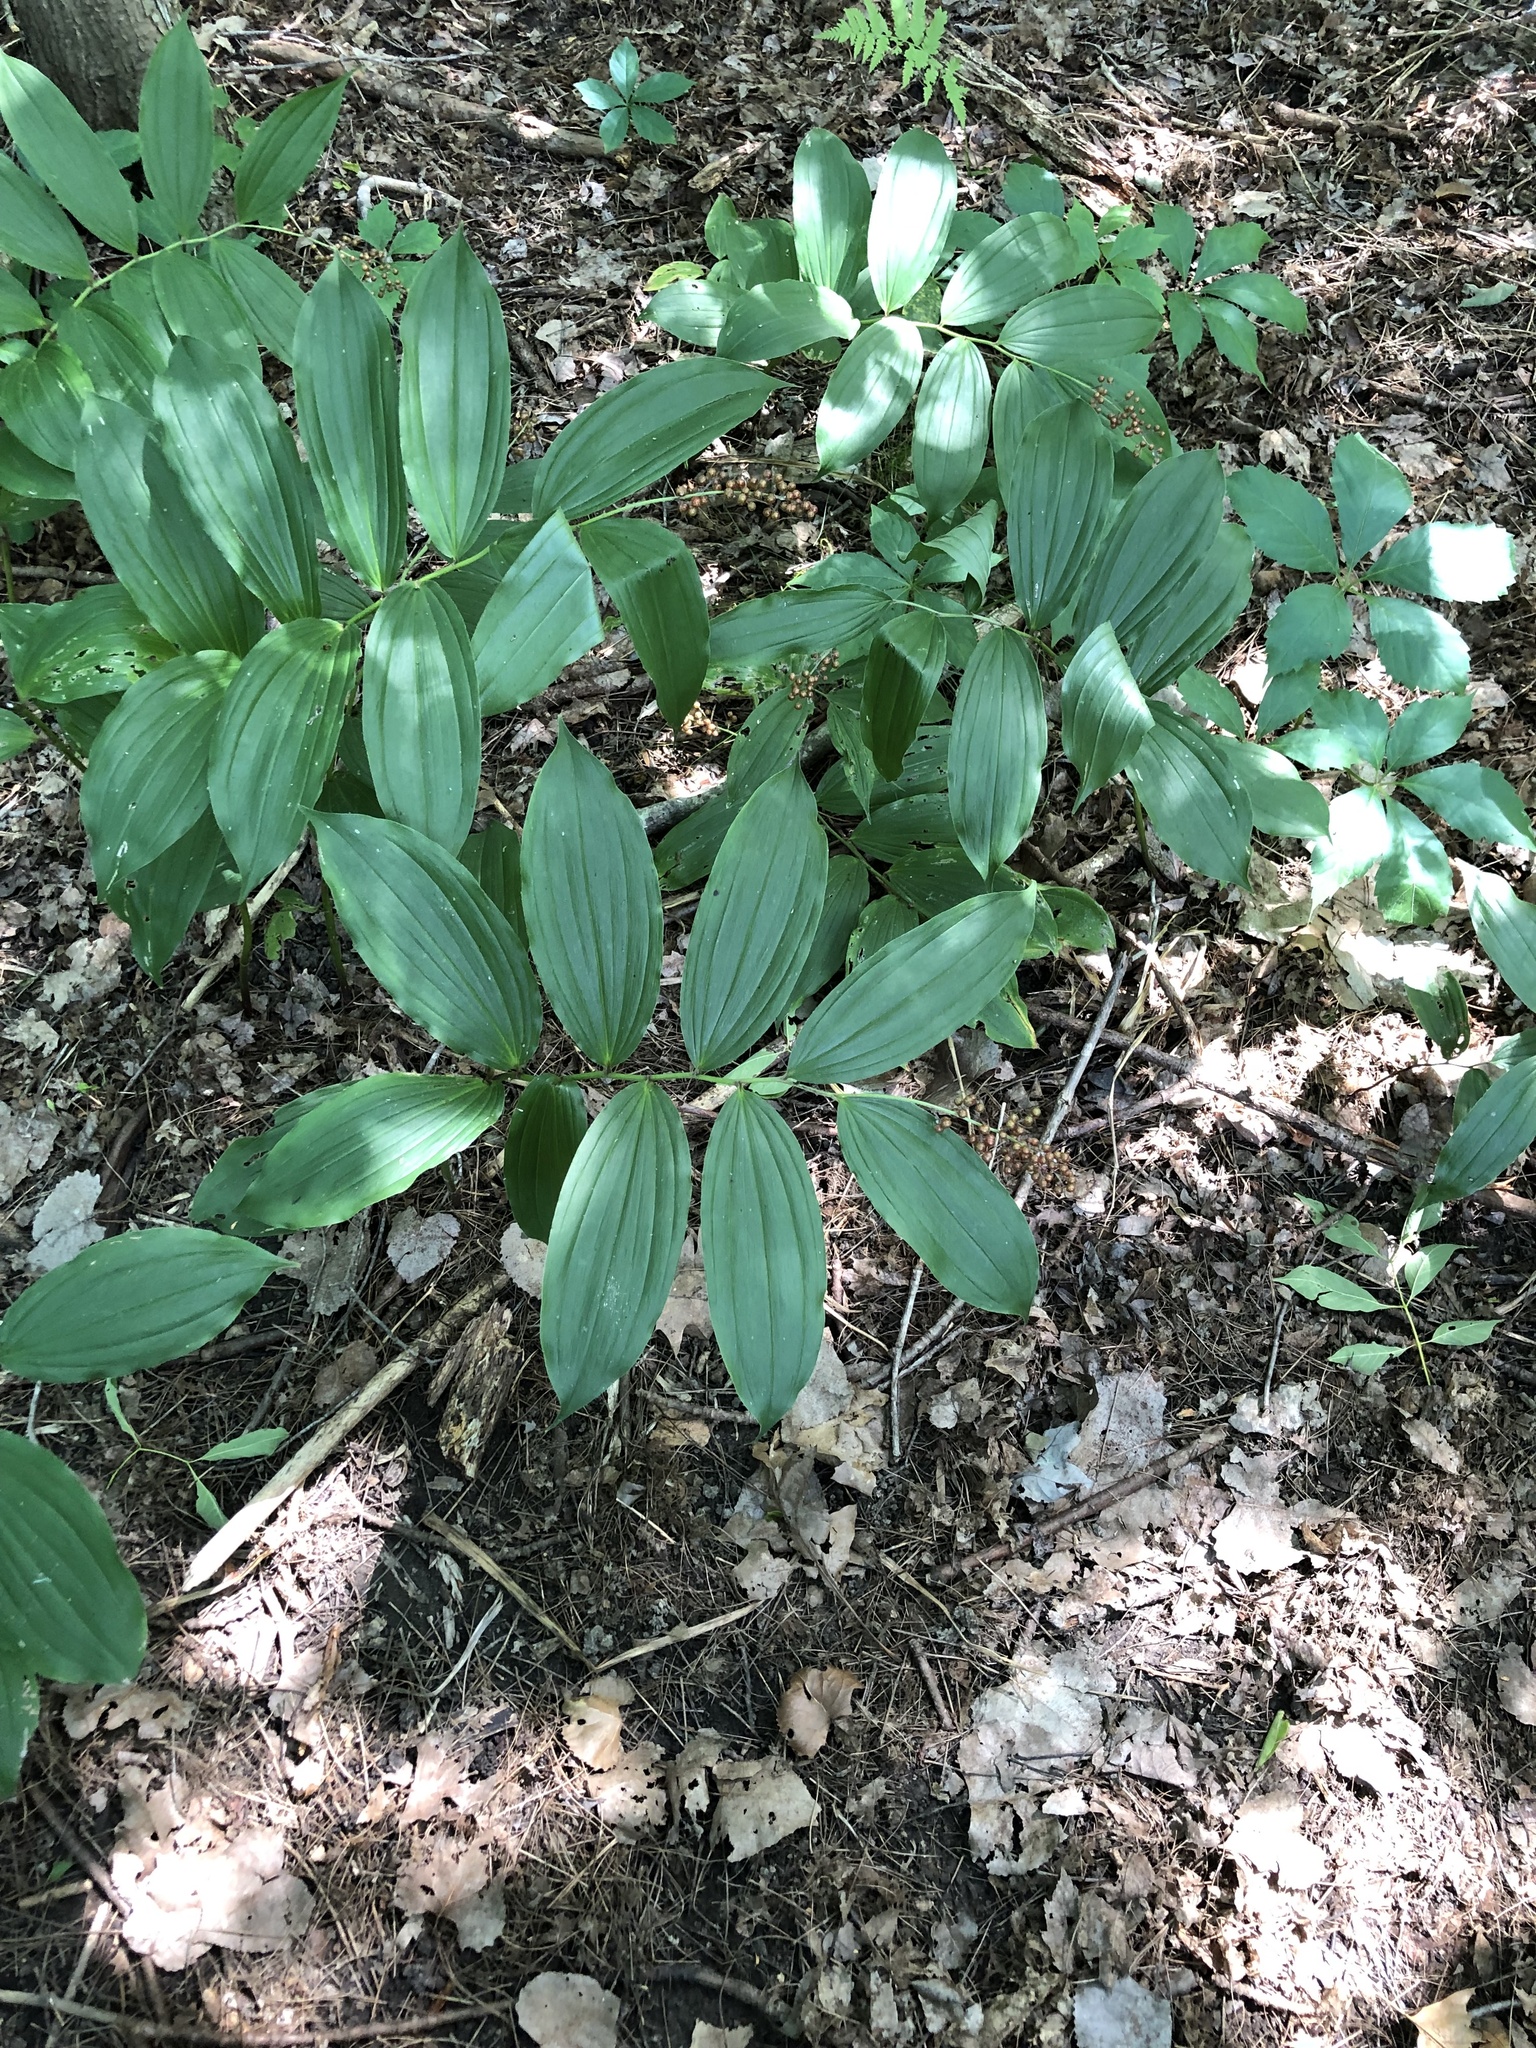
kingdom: Plantae
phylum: Tracheophyta
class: Liliopsida
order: Asparagales
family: Asparagaceae
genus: Maianthemum
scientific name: Maianthemum racemosum
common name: False spikenard
